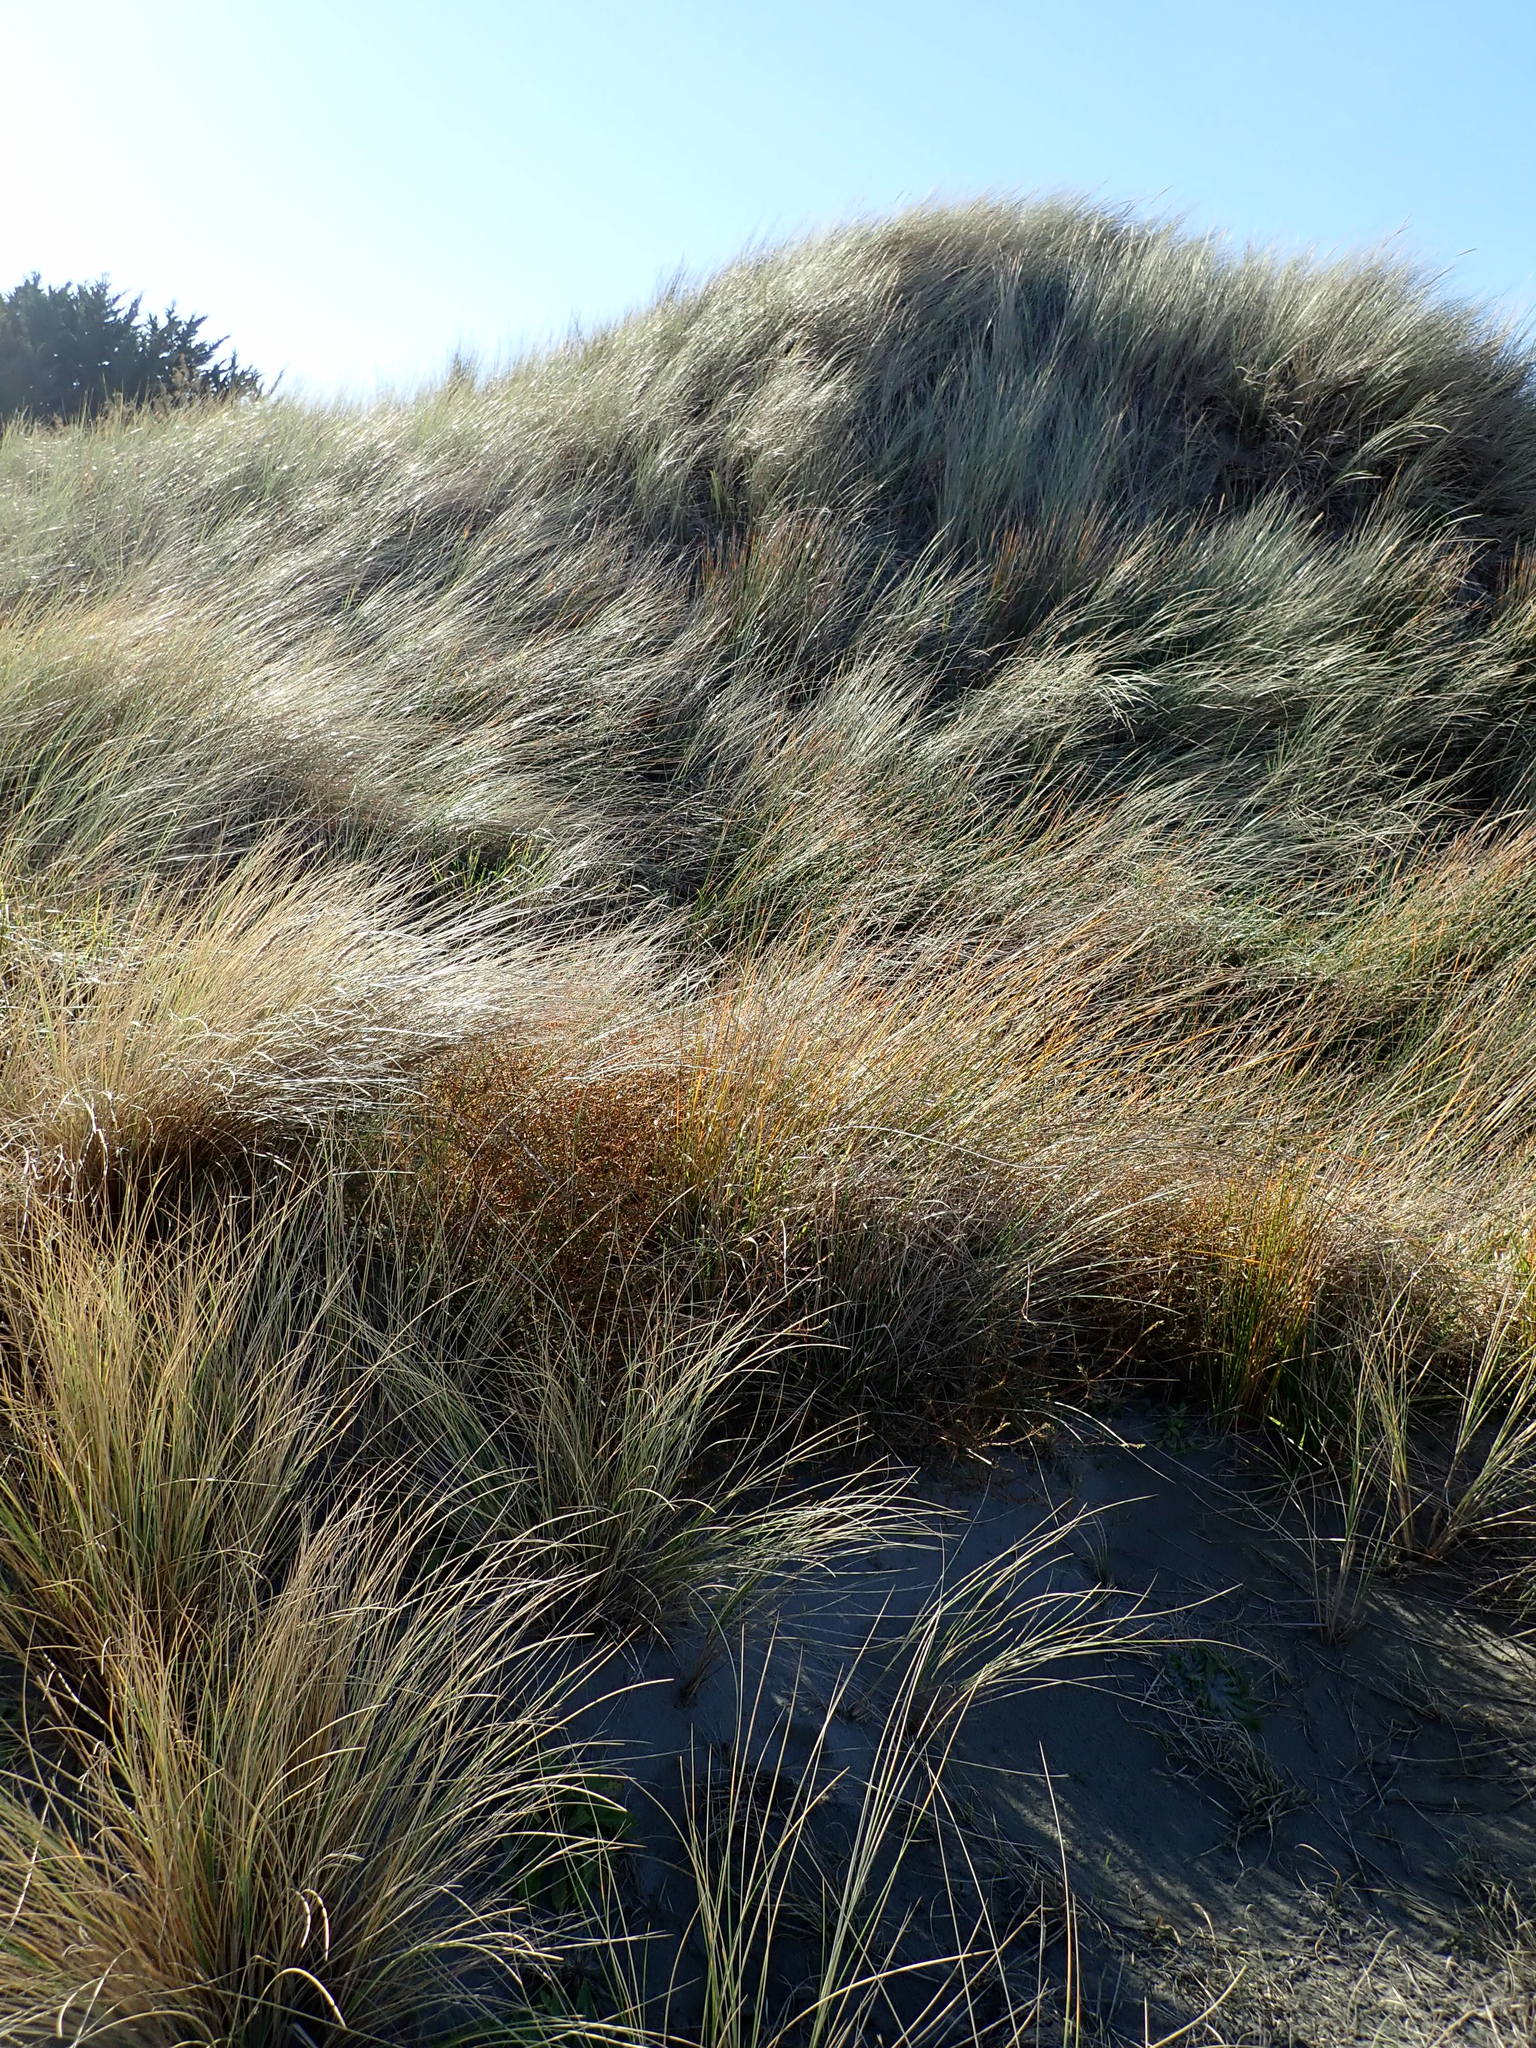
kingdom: Plantae
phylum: Tracheophyta
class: Magnoliopsida
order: Gentianales
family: Rubiaceae
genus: Coprosma
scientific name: Coprosma acerosa
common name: Sand coprosma
